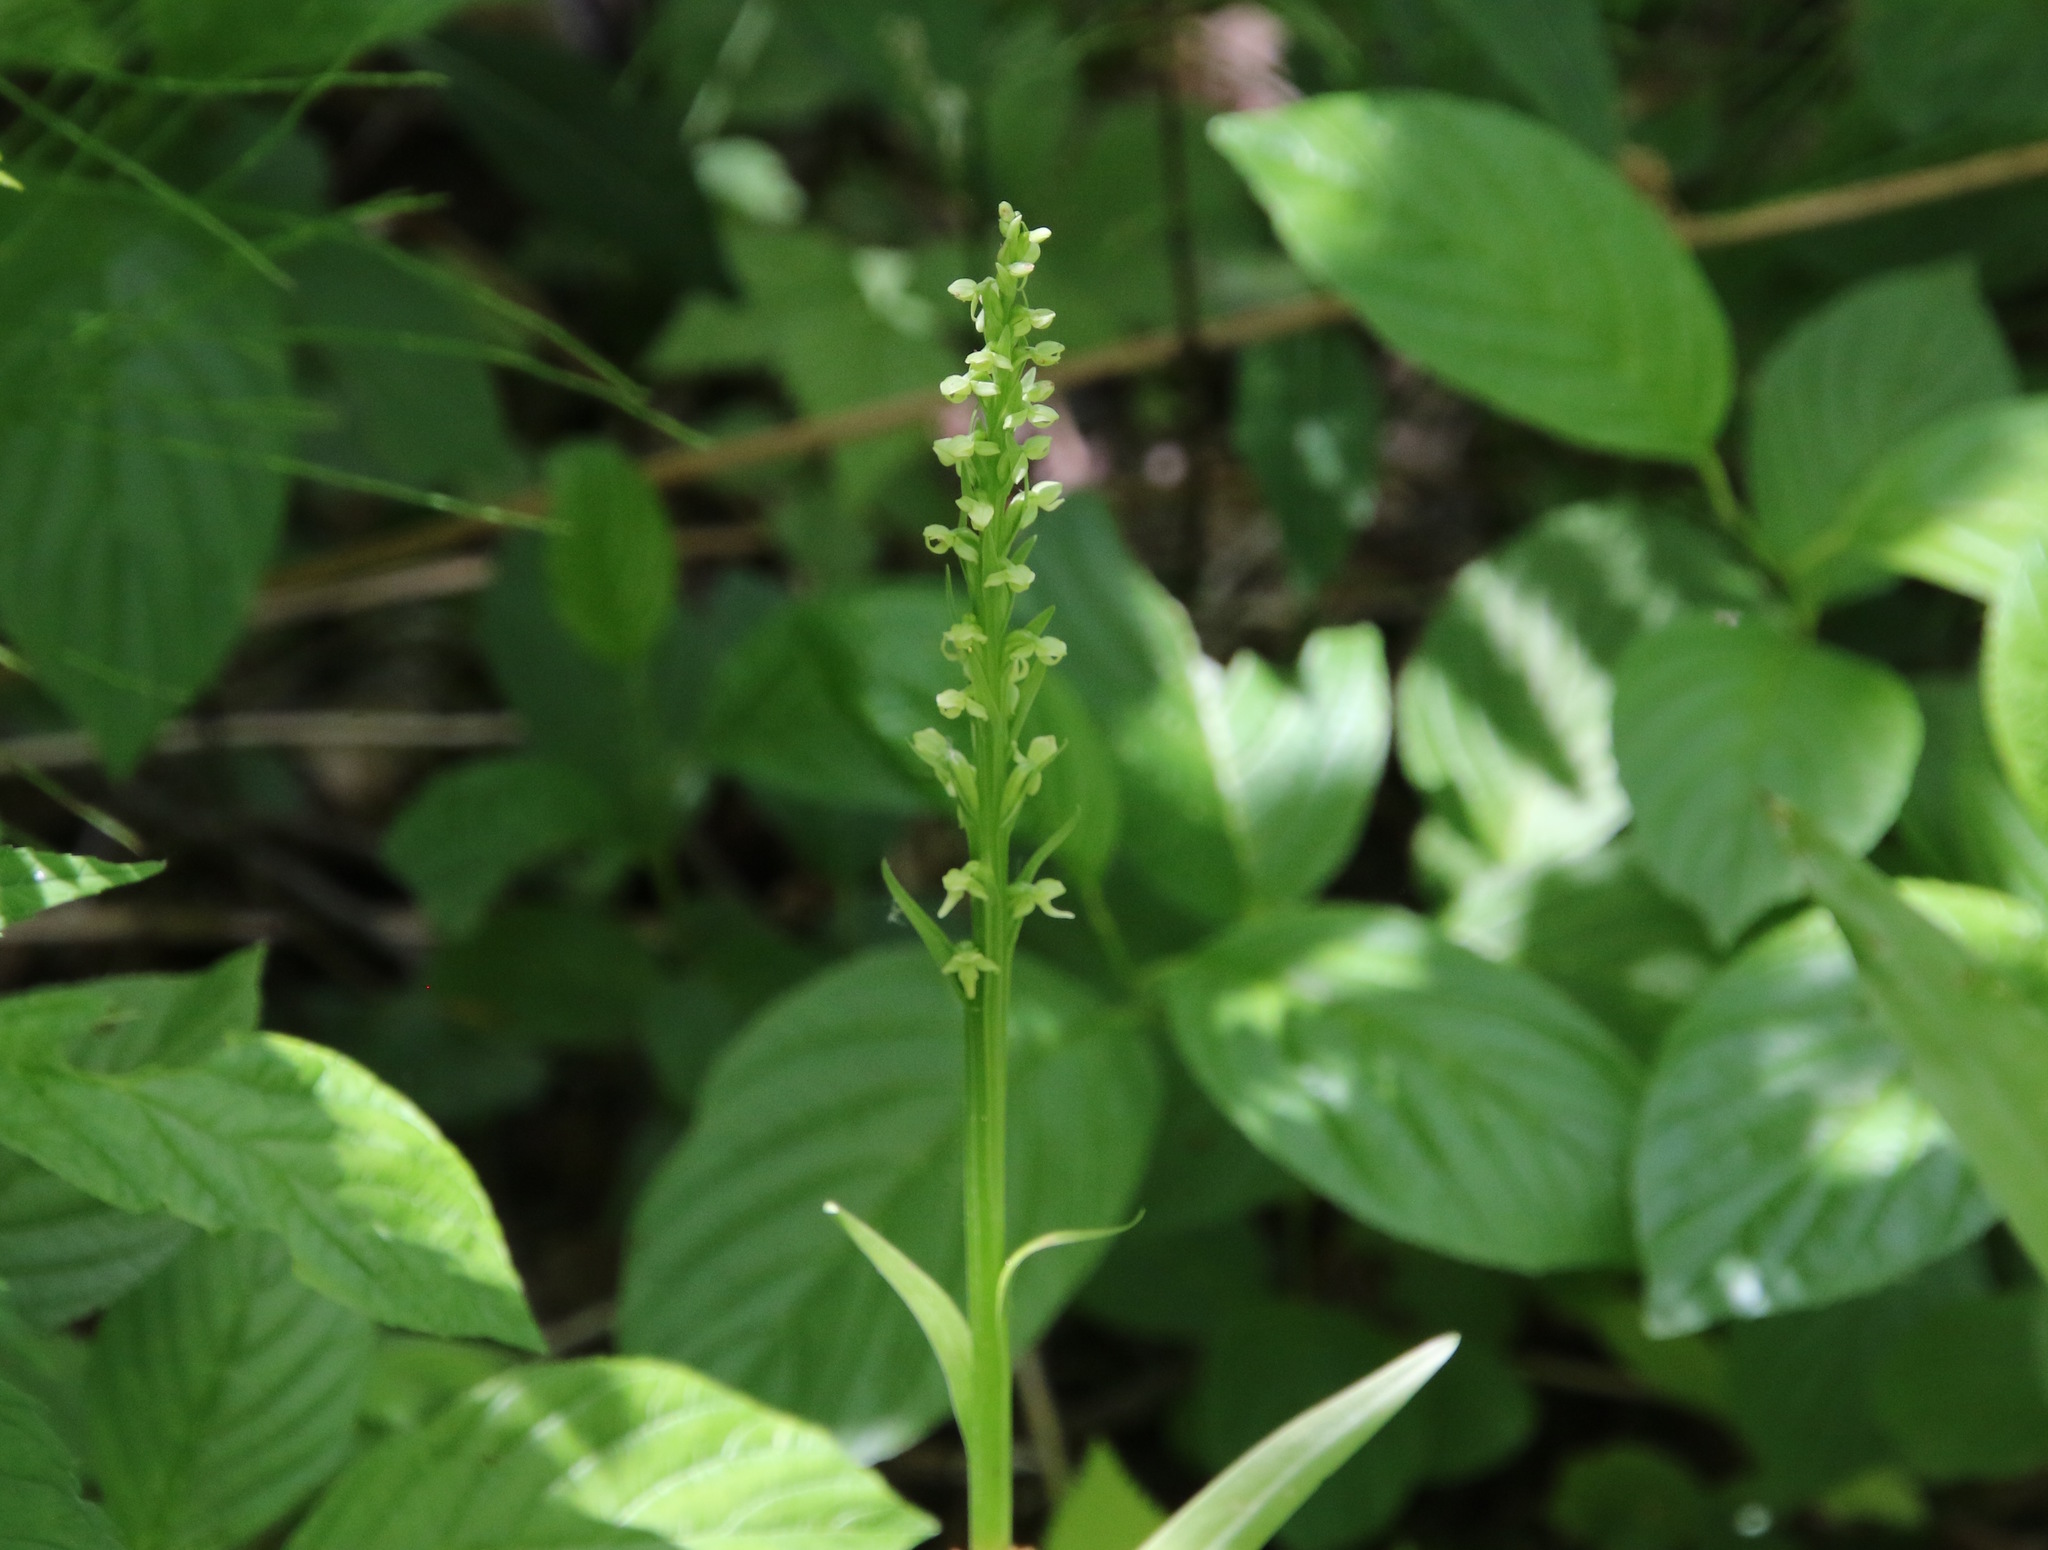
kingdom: Plantae
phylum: Tracheophyta
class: Liliopsida
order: Asparagales
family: Orchidaceae
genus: Platanthera
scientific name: Platanthera huronensis
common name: Fragrant green orchid
